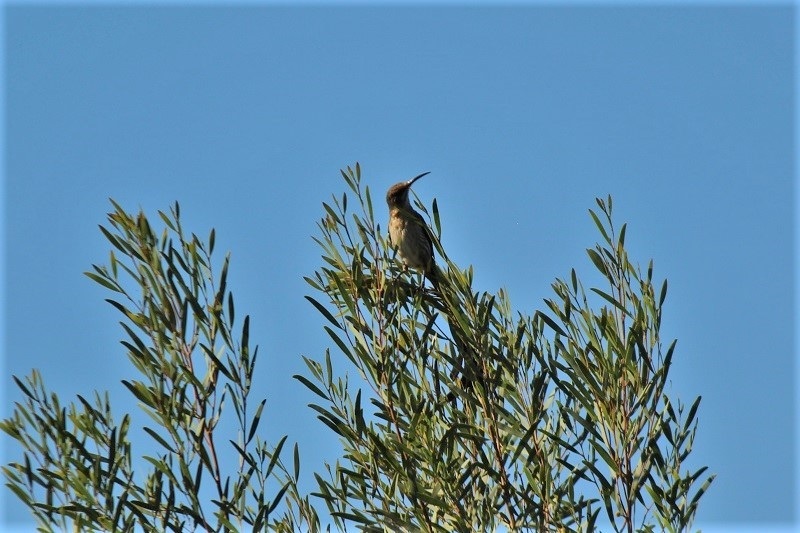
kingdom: Animalia
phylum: Chordata
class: Aves
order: Passeriformes
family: Promeropidae
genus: Promerops
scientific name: Promerops cafer
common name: Cape sugarbird
